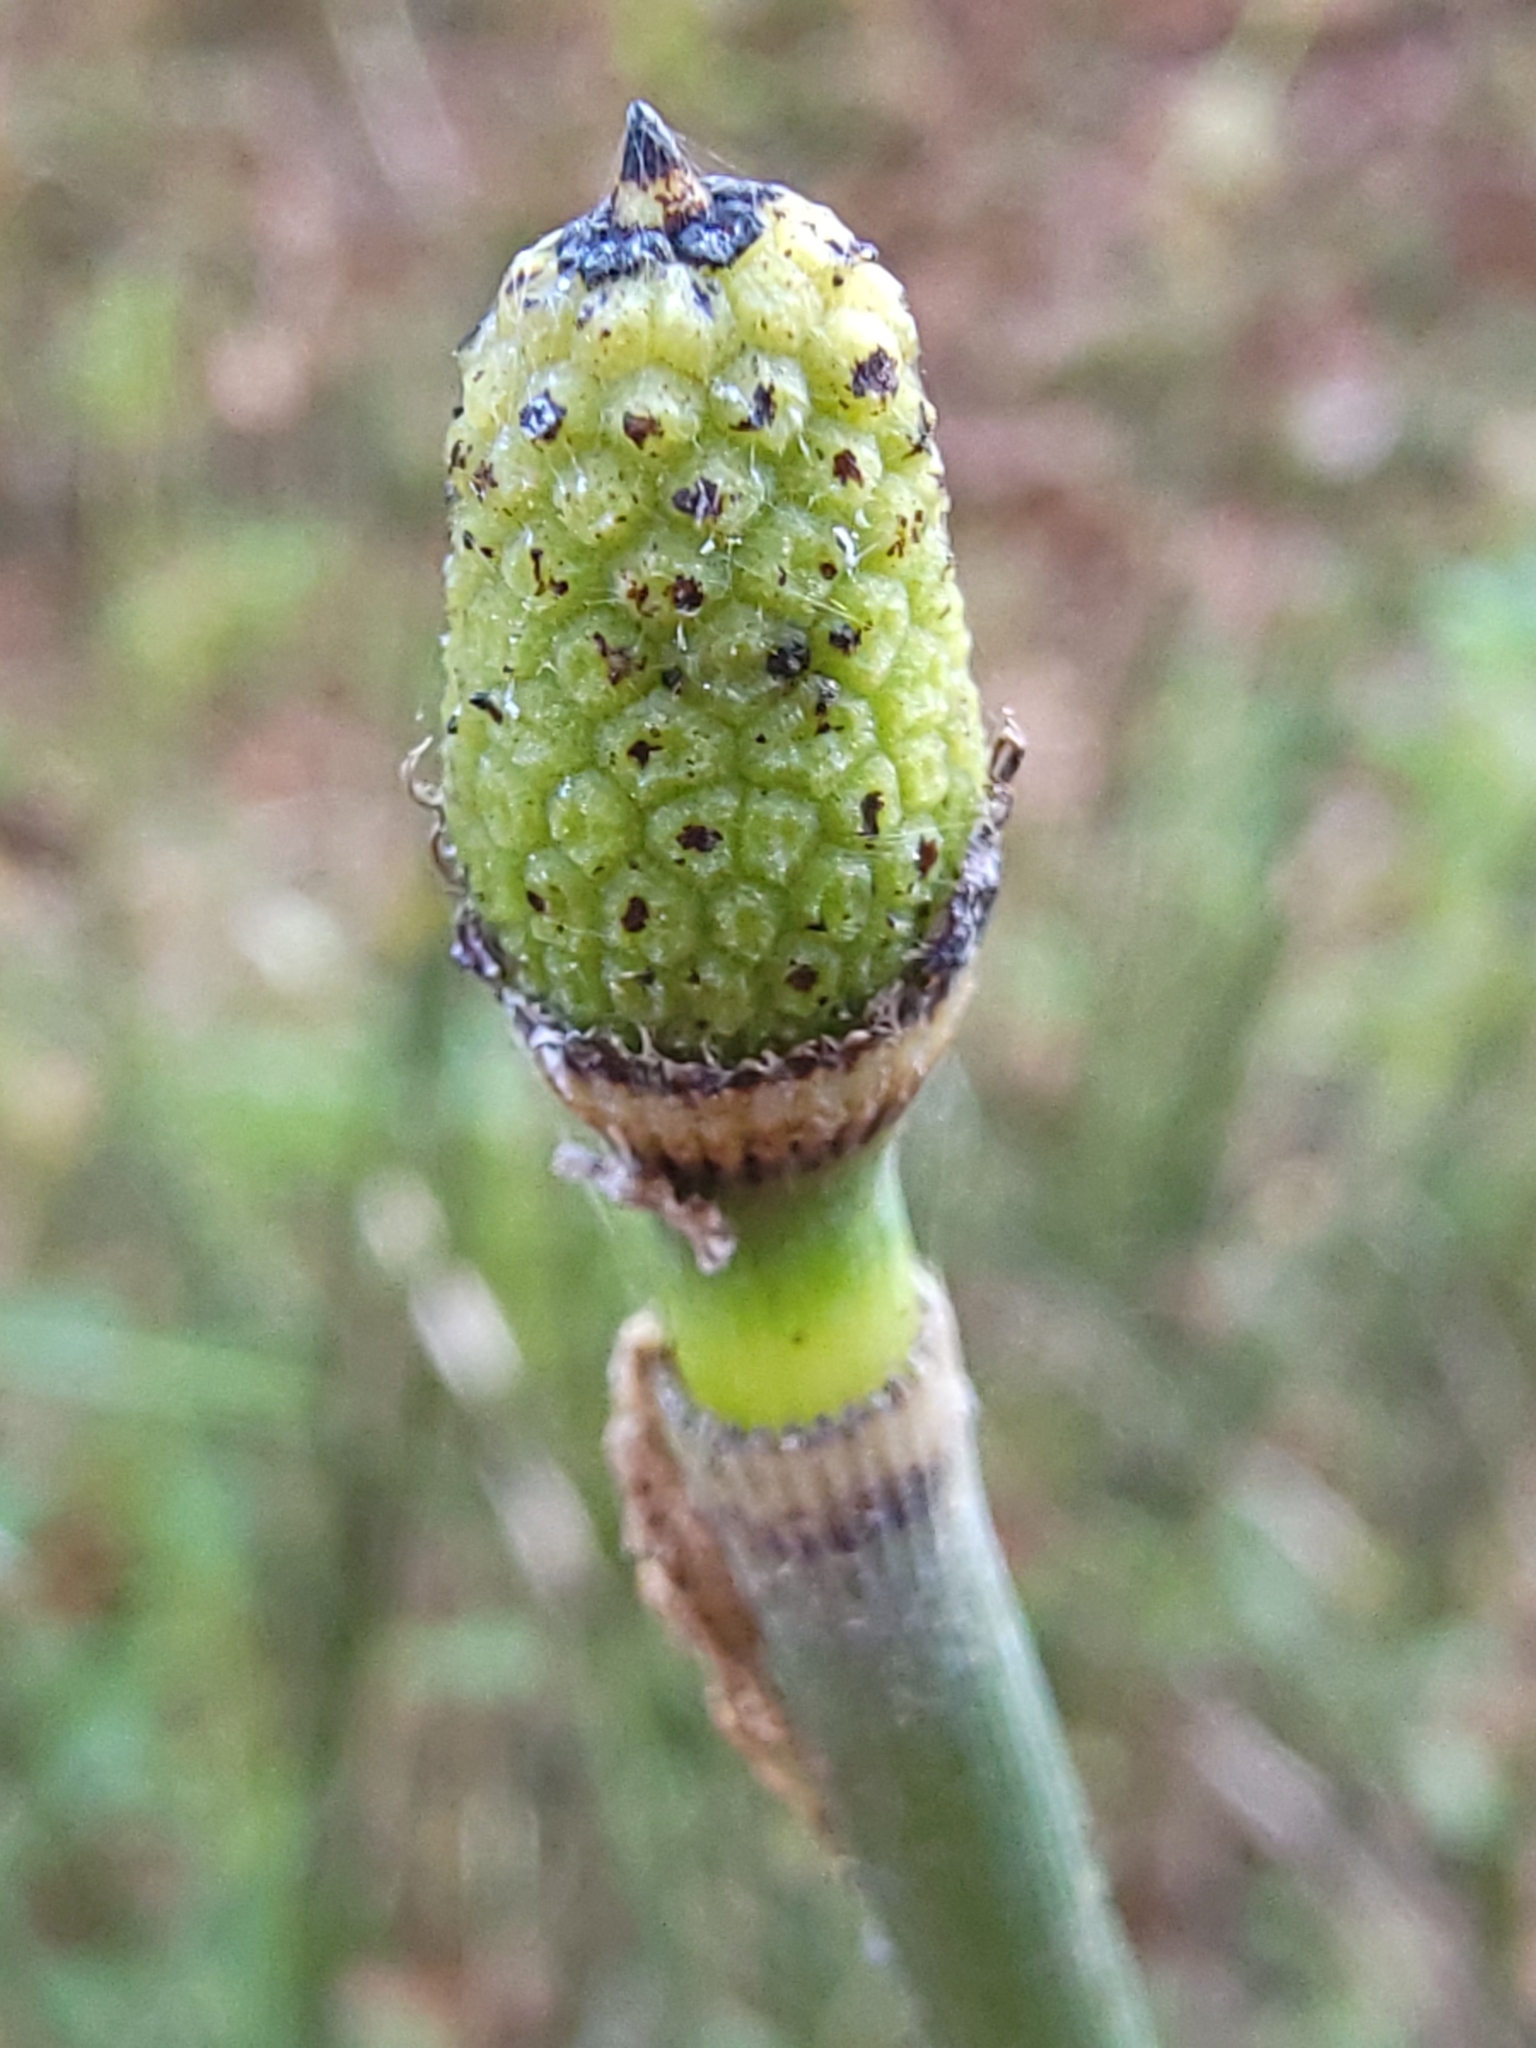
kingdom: Plantae
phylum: Tracheophyta
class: Polypodiopsida
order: Equisetales
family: Equisetaceae
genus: Equisetum
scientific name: Equisetum praealtum
